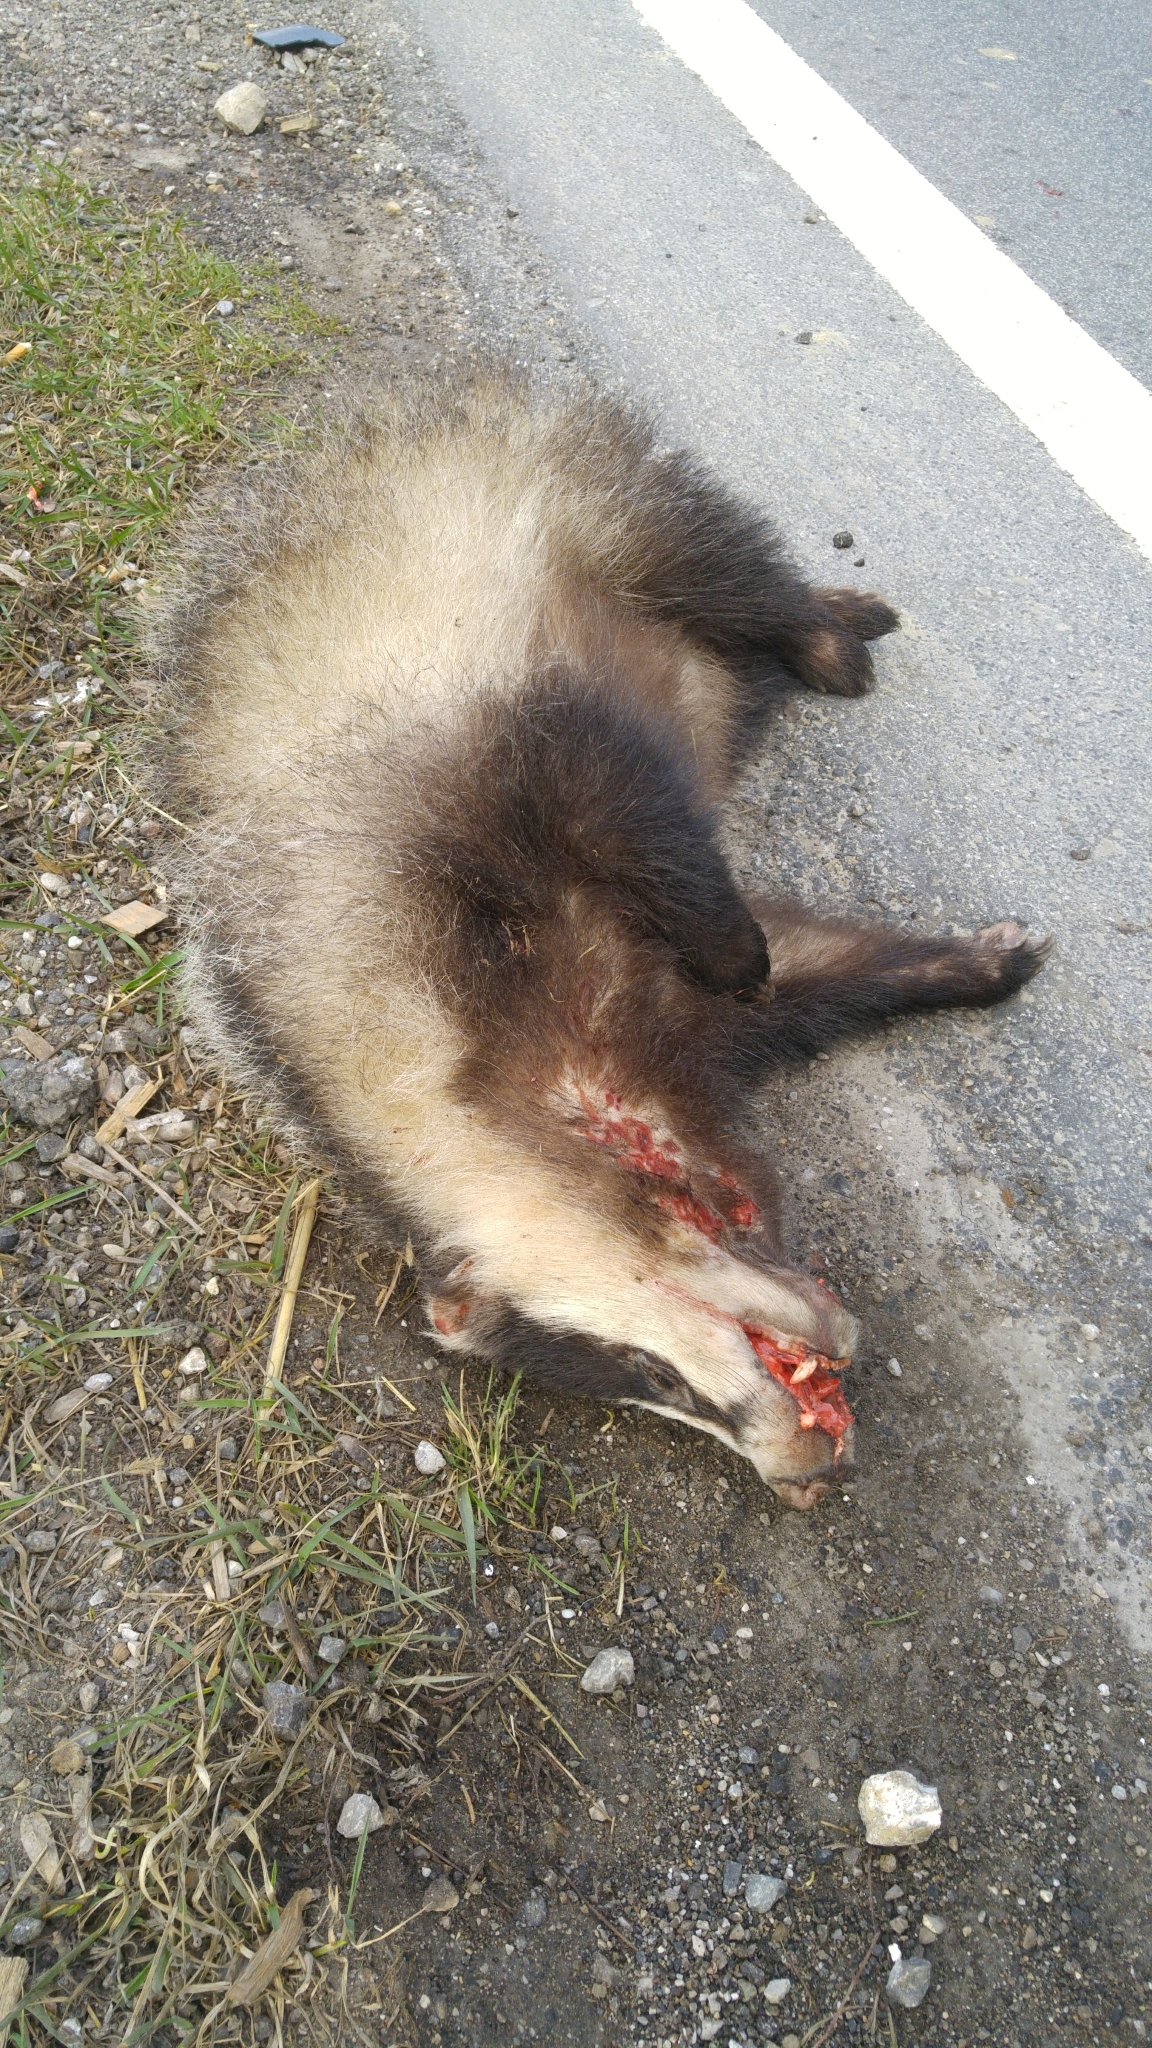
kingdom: Animalia
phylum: Chordata
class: Mammalia
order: Carnivora
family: Mustelidae
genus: Meles
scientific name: Meles meles
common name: Eurasian badger
